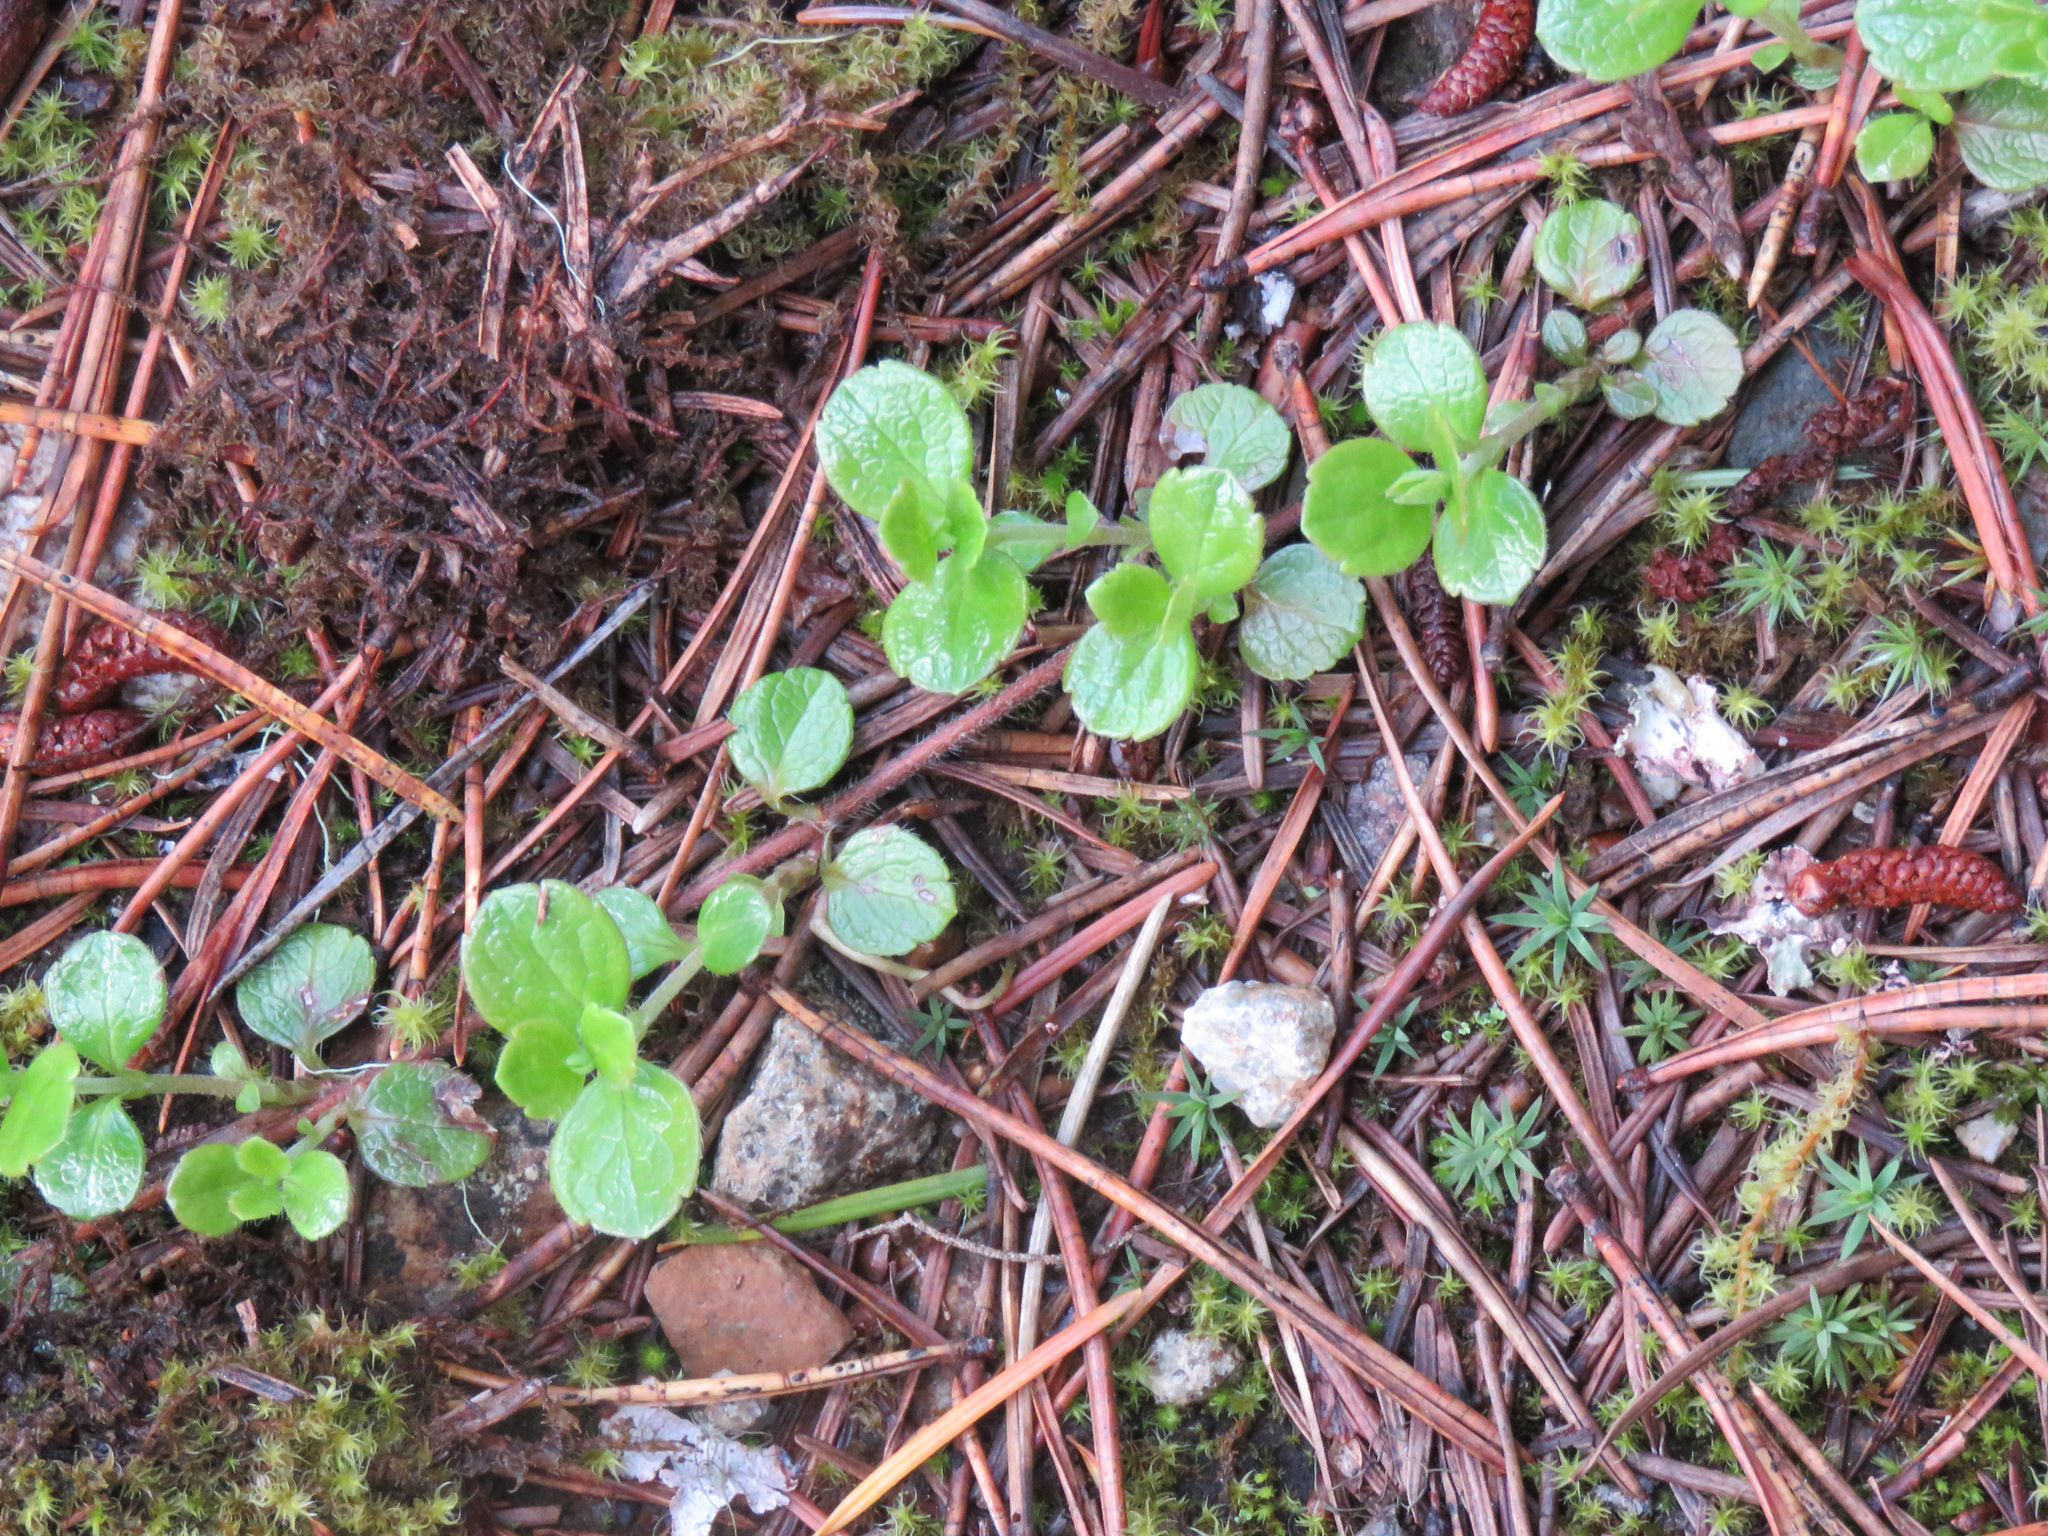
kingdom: Plantae
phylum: Tracheophyta
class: Magnoliopsida
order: Dipsacales
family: Caprifoliaceae
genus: Linnaea
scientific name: Linnaea borealis
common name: Twinflower
